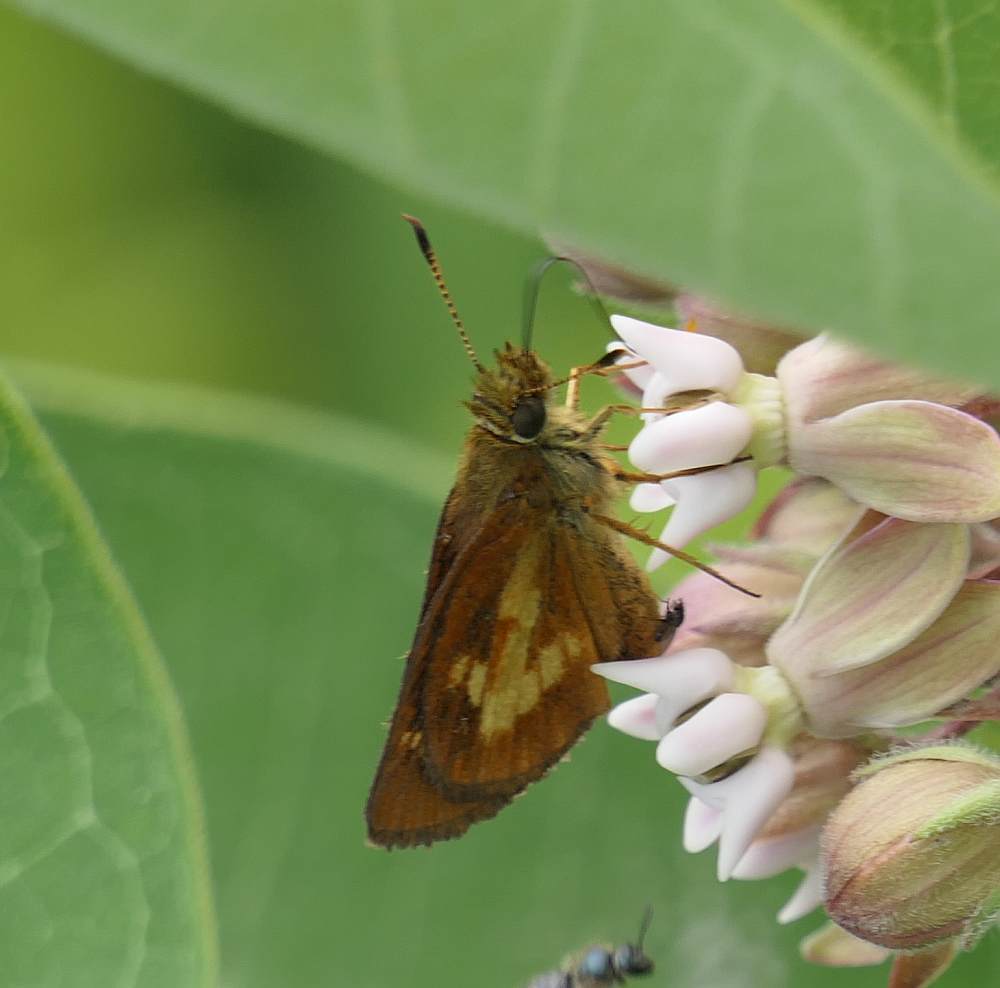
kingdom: Animalia
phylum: Arthropoda
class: Insecta
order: Lepidoptera
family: Hesperiidae
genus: Poanes
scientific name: Poanes massasoit
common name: Mulberrywing
